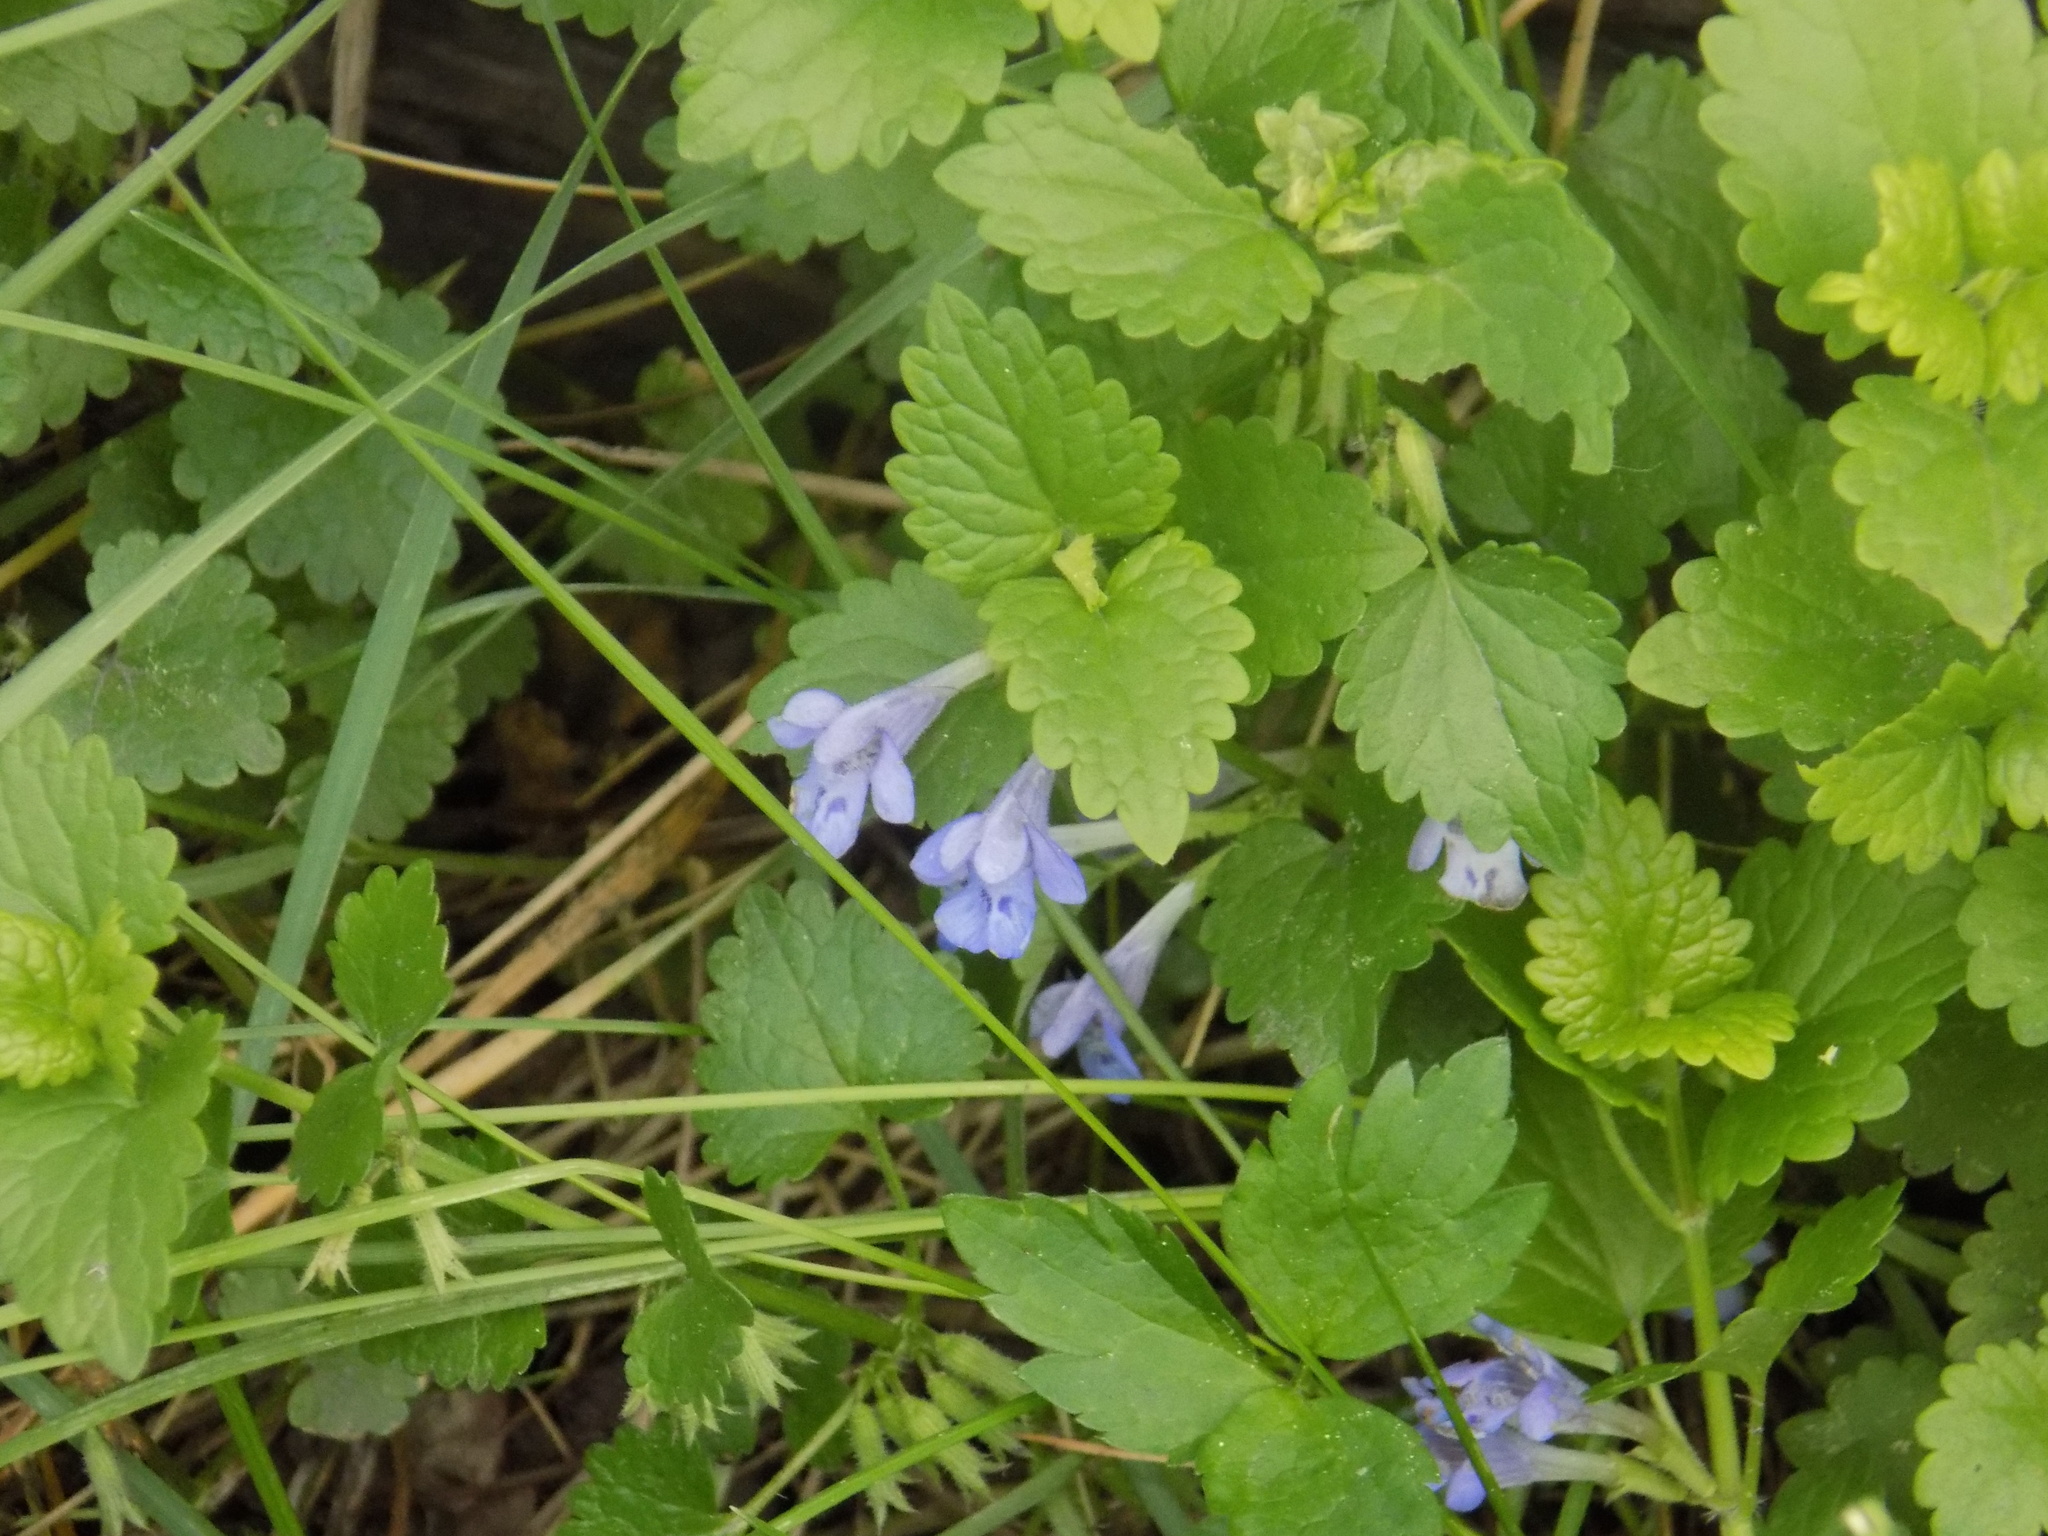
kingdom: Plantae
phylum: Tracheophyta
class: Magnoliopsida
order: Lamiales
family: Lamiaceae
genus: Glechoma
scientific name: Glechoma hederacea
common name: Ground ivy
